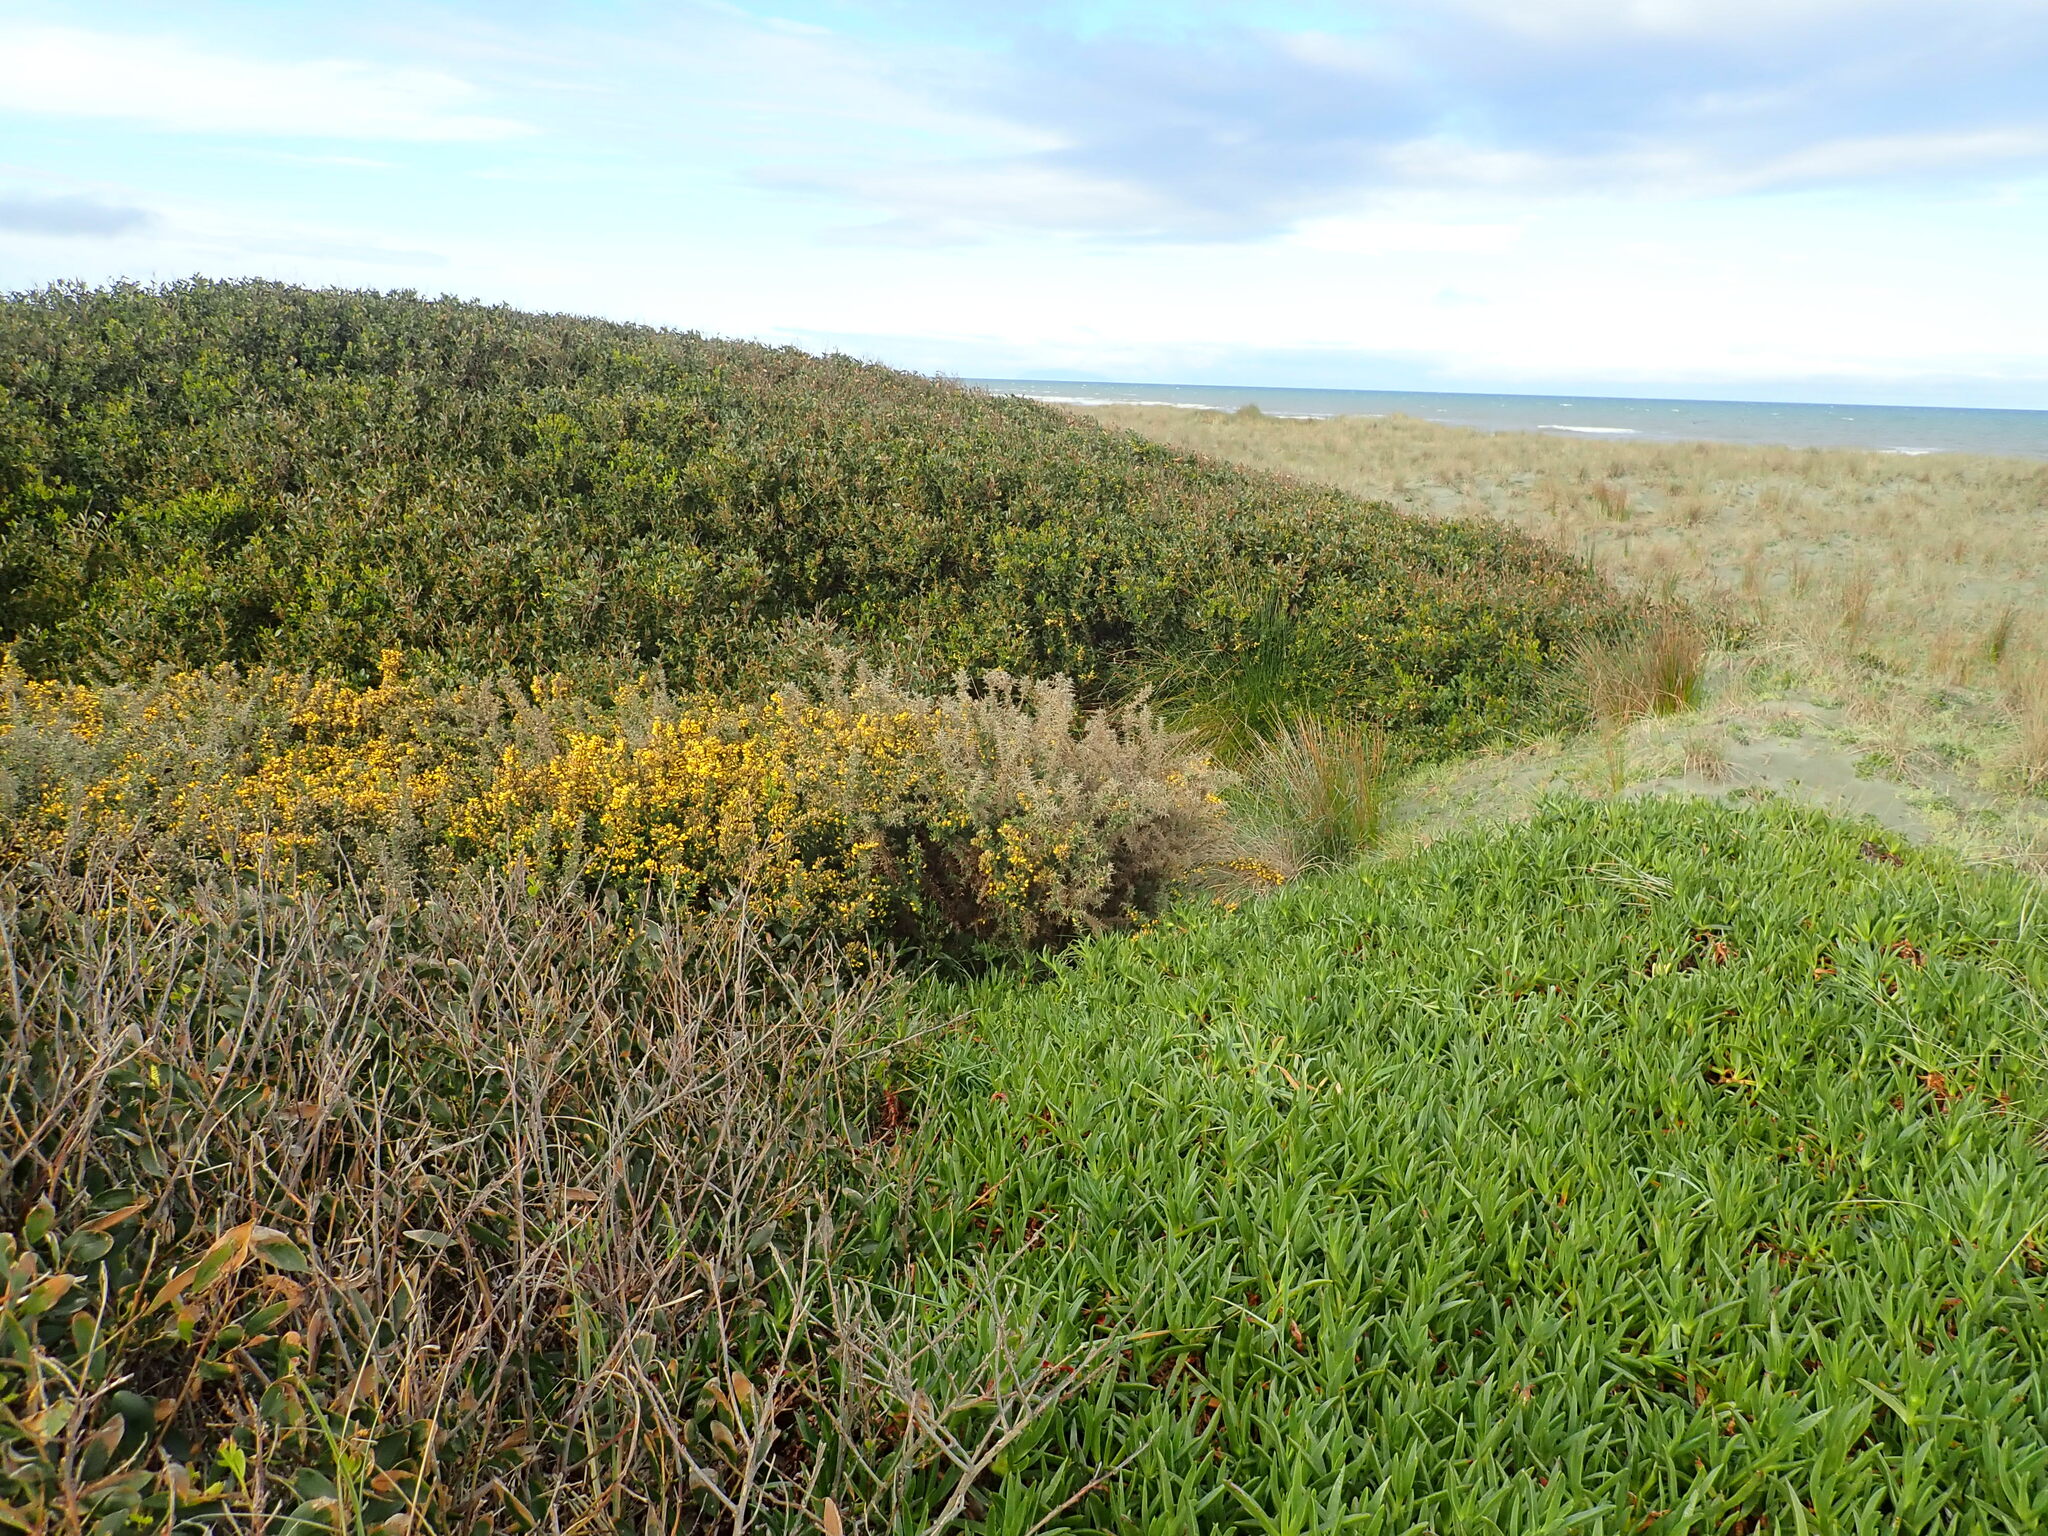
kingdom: Plantae
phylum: Tracheophyta
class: Magnoliopsida
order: Fabales
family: Fabaceae
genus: Ulex
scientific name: Ulex europaeus
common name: Common gorse
